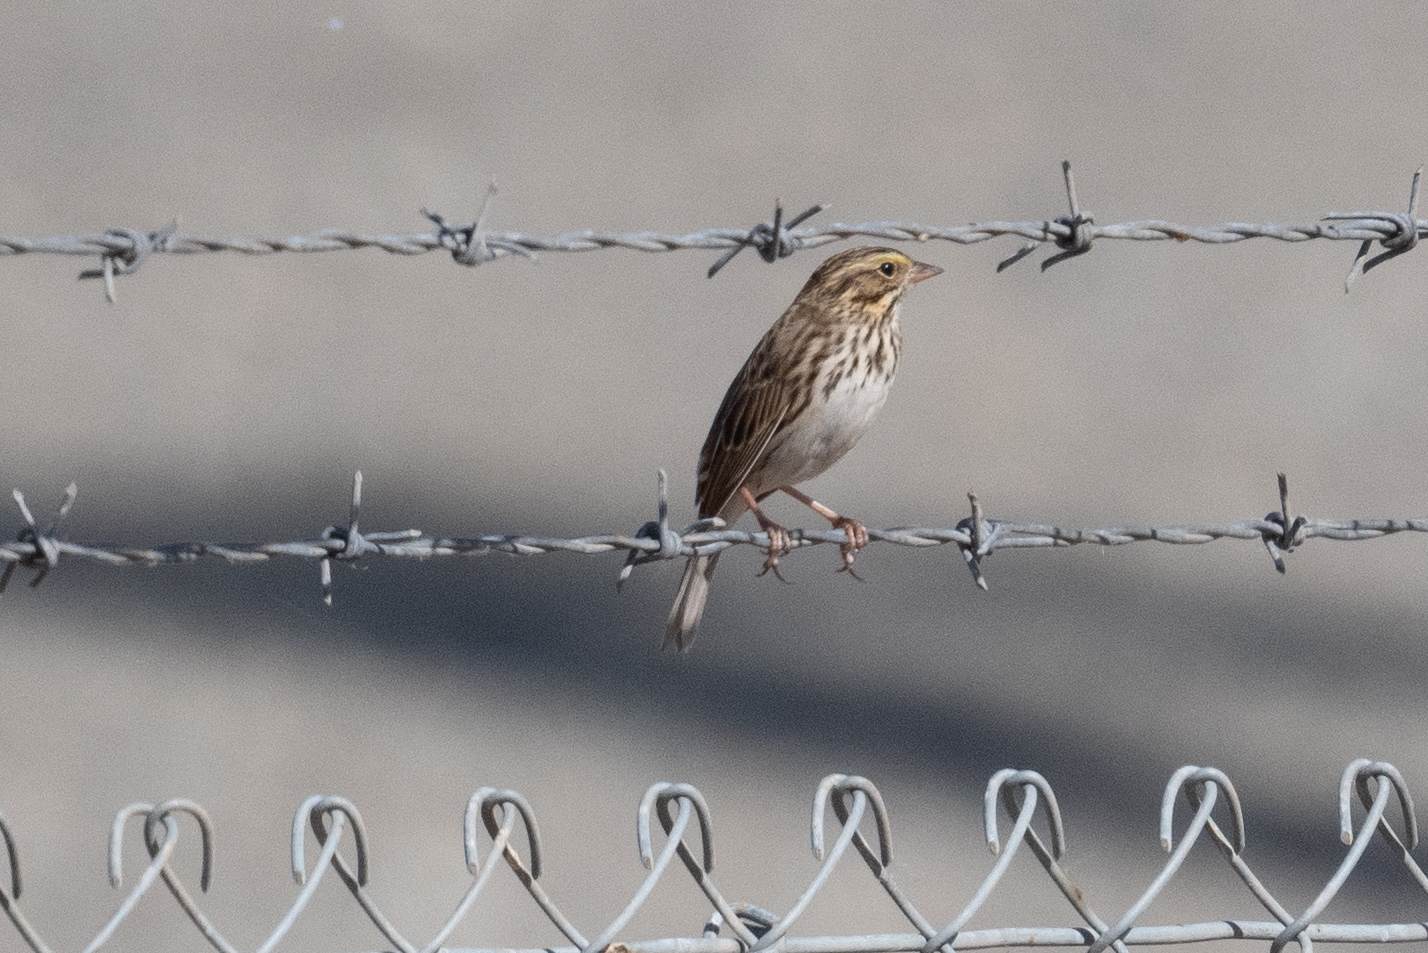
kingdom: Animalia
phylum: Chordata
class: Aves
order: Passeriformes
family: Passerellidae
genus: Passerculus
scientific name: Passerculus sandwichensis
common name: Savannah sparrow
